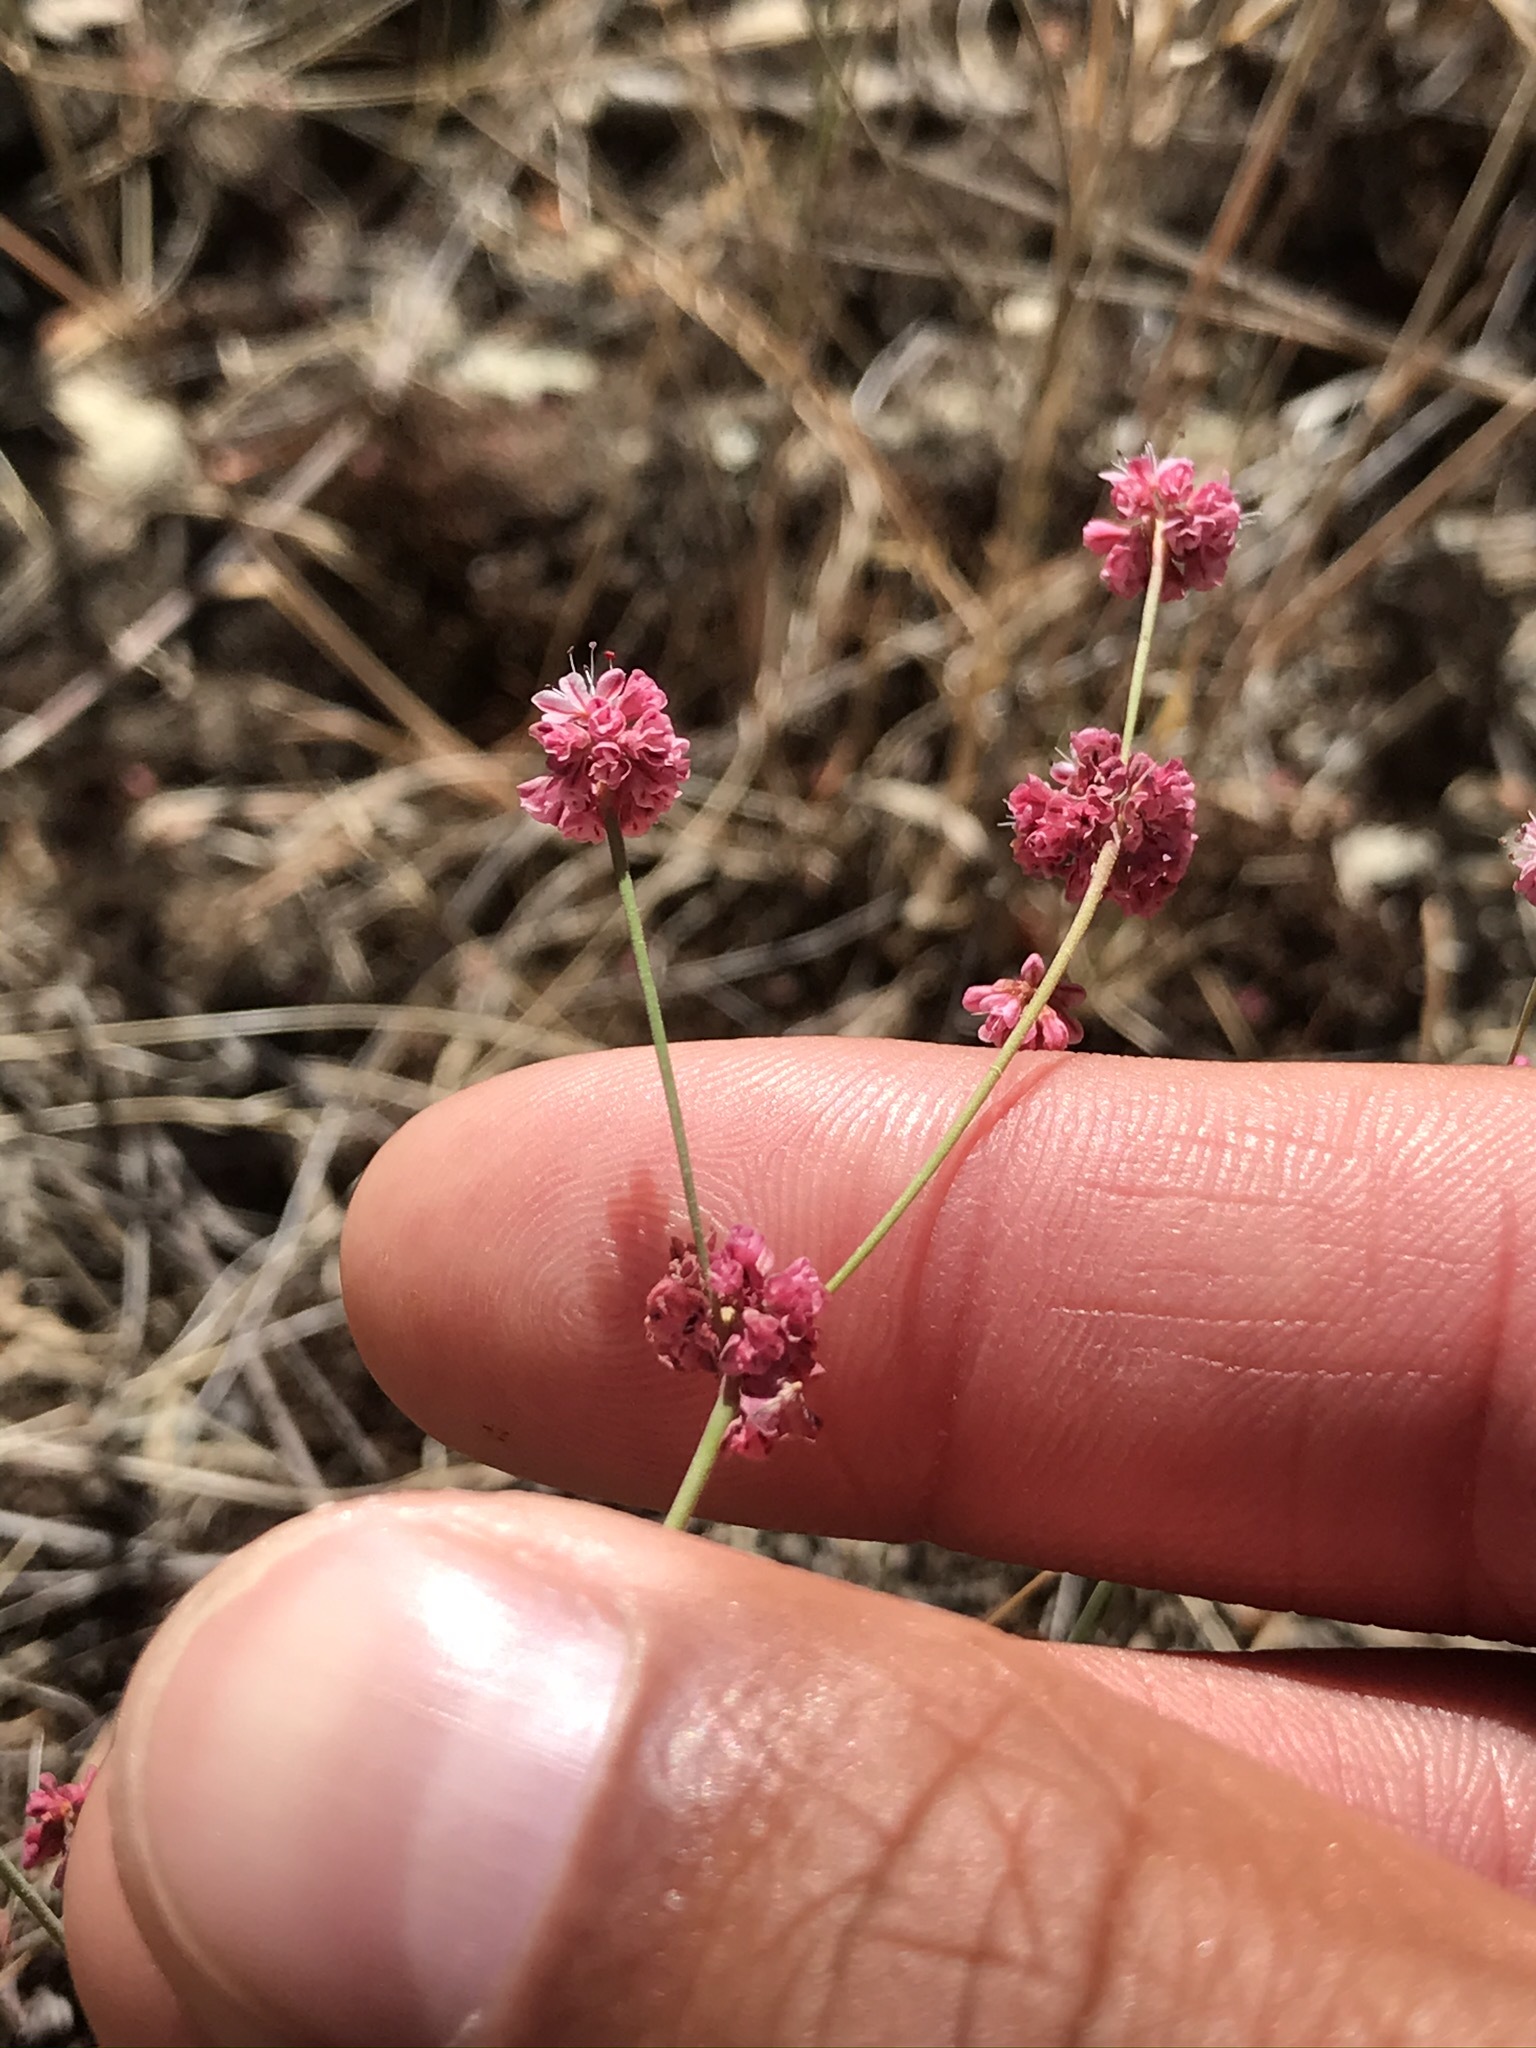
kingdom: Plantae
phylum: Tracheophyta
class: Magnoliopsida
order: Caryophyllales
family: Polygonaceae
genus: Eriogonum
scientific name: Eriogonum luteolum
